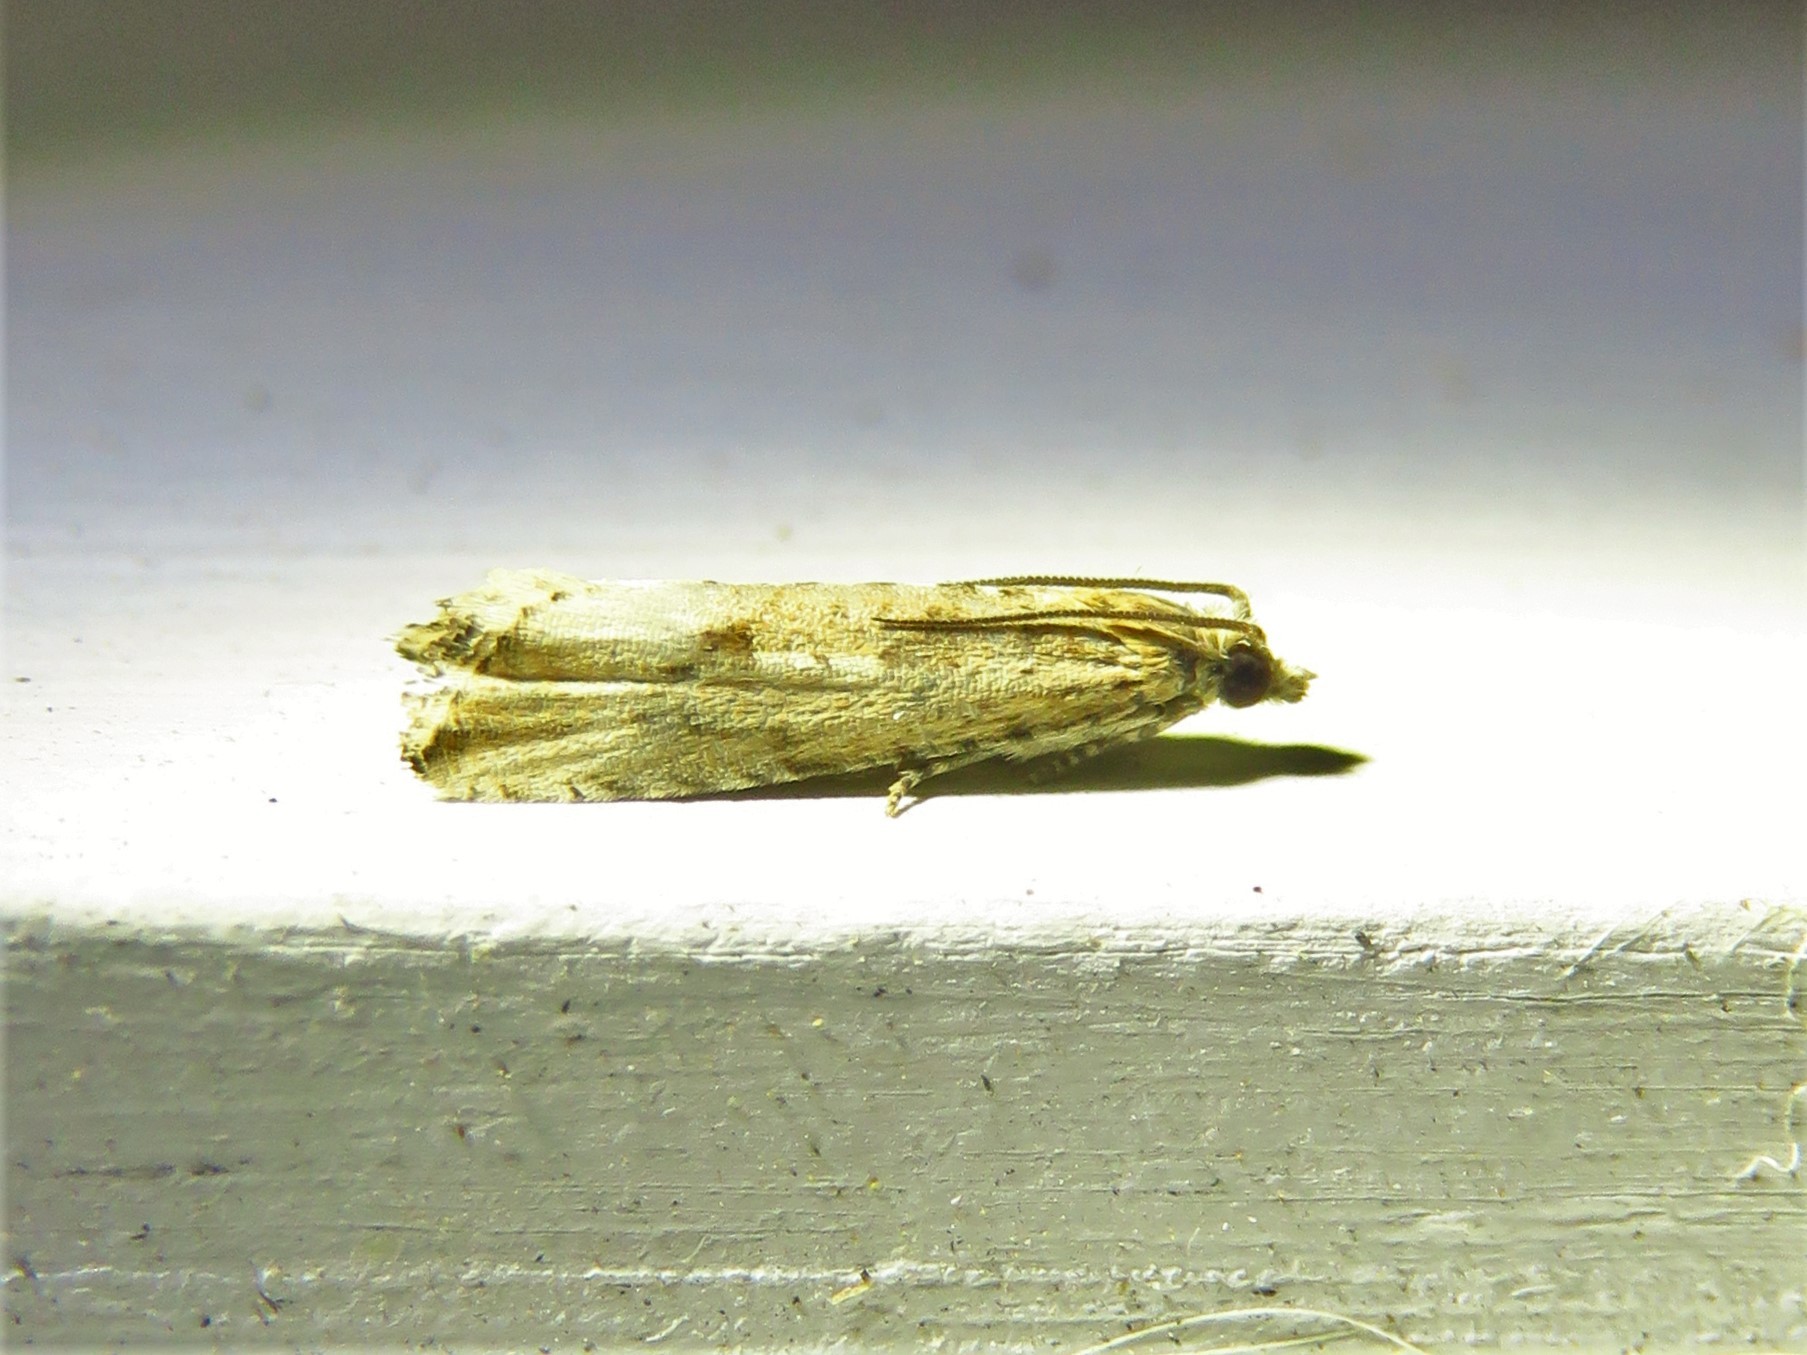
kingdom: Animalia
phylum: Arthropoda
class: Insecta
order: Lepidoptera
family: Tortricidae
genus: Bactra
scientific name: Bactra verutana
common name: Javelin moth
